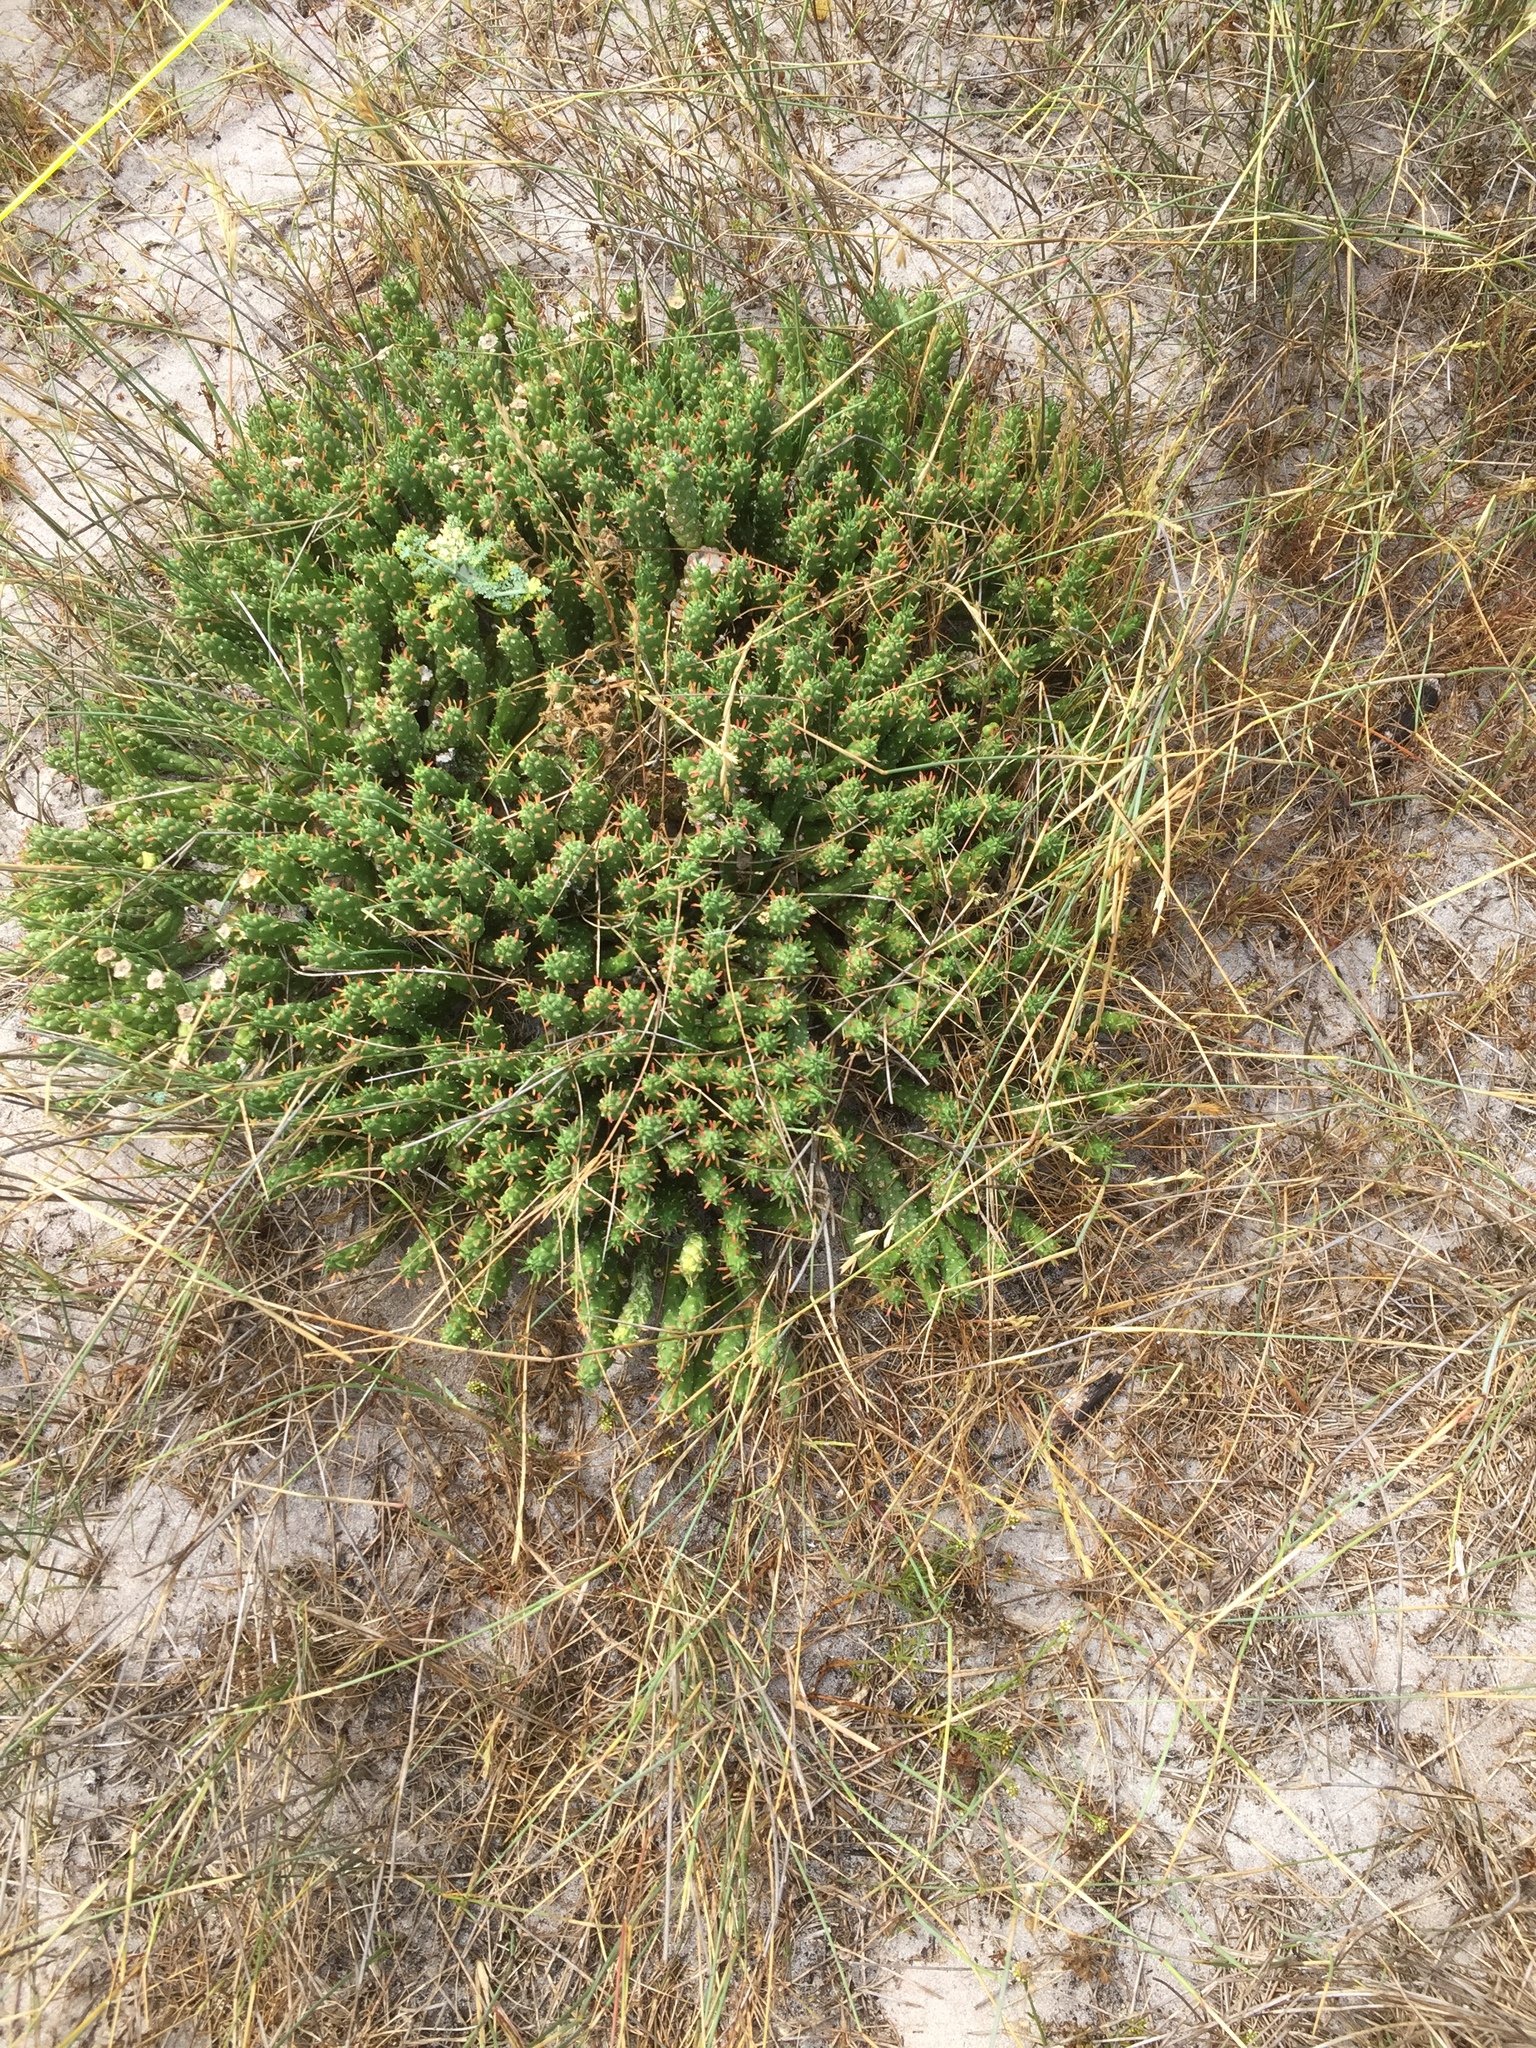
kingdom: Plantae
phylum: Tracheophyta
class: Magnoliopsida
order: Malpighiales
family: Euphorbiaceae
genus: Euphorbia
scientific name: Euphorbia caput-medusae
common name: Medusa's-head
